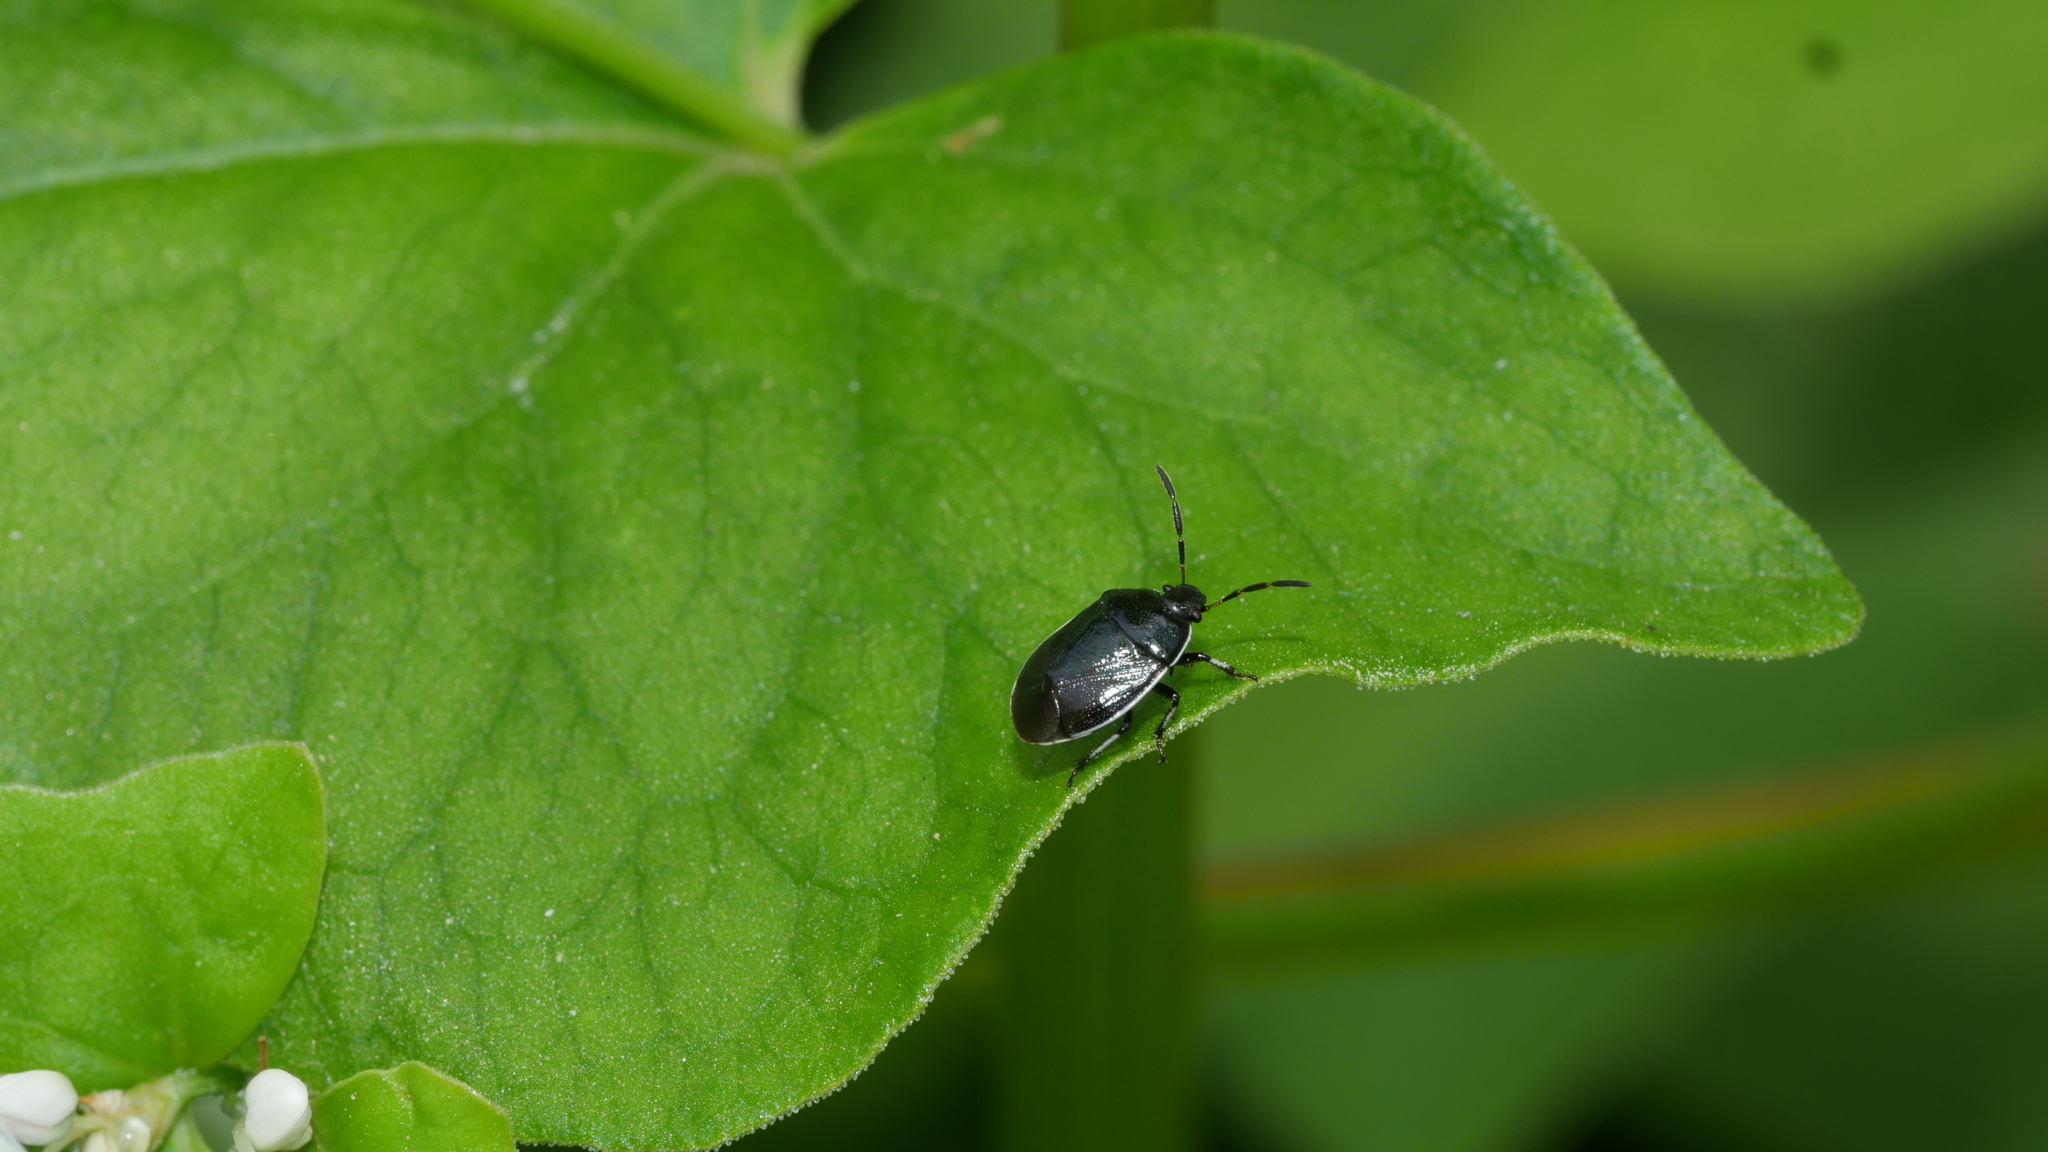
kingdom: Animalia
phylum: Arthropoda
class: Insecta
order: Hemiptera
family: Cydnidae
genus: Sehirus
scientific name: Sehirus cinctus
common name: White-margined burrower bug
